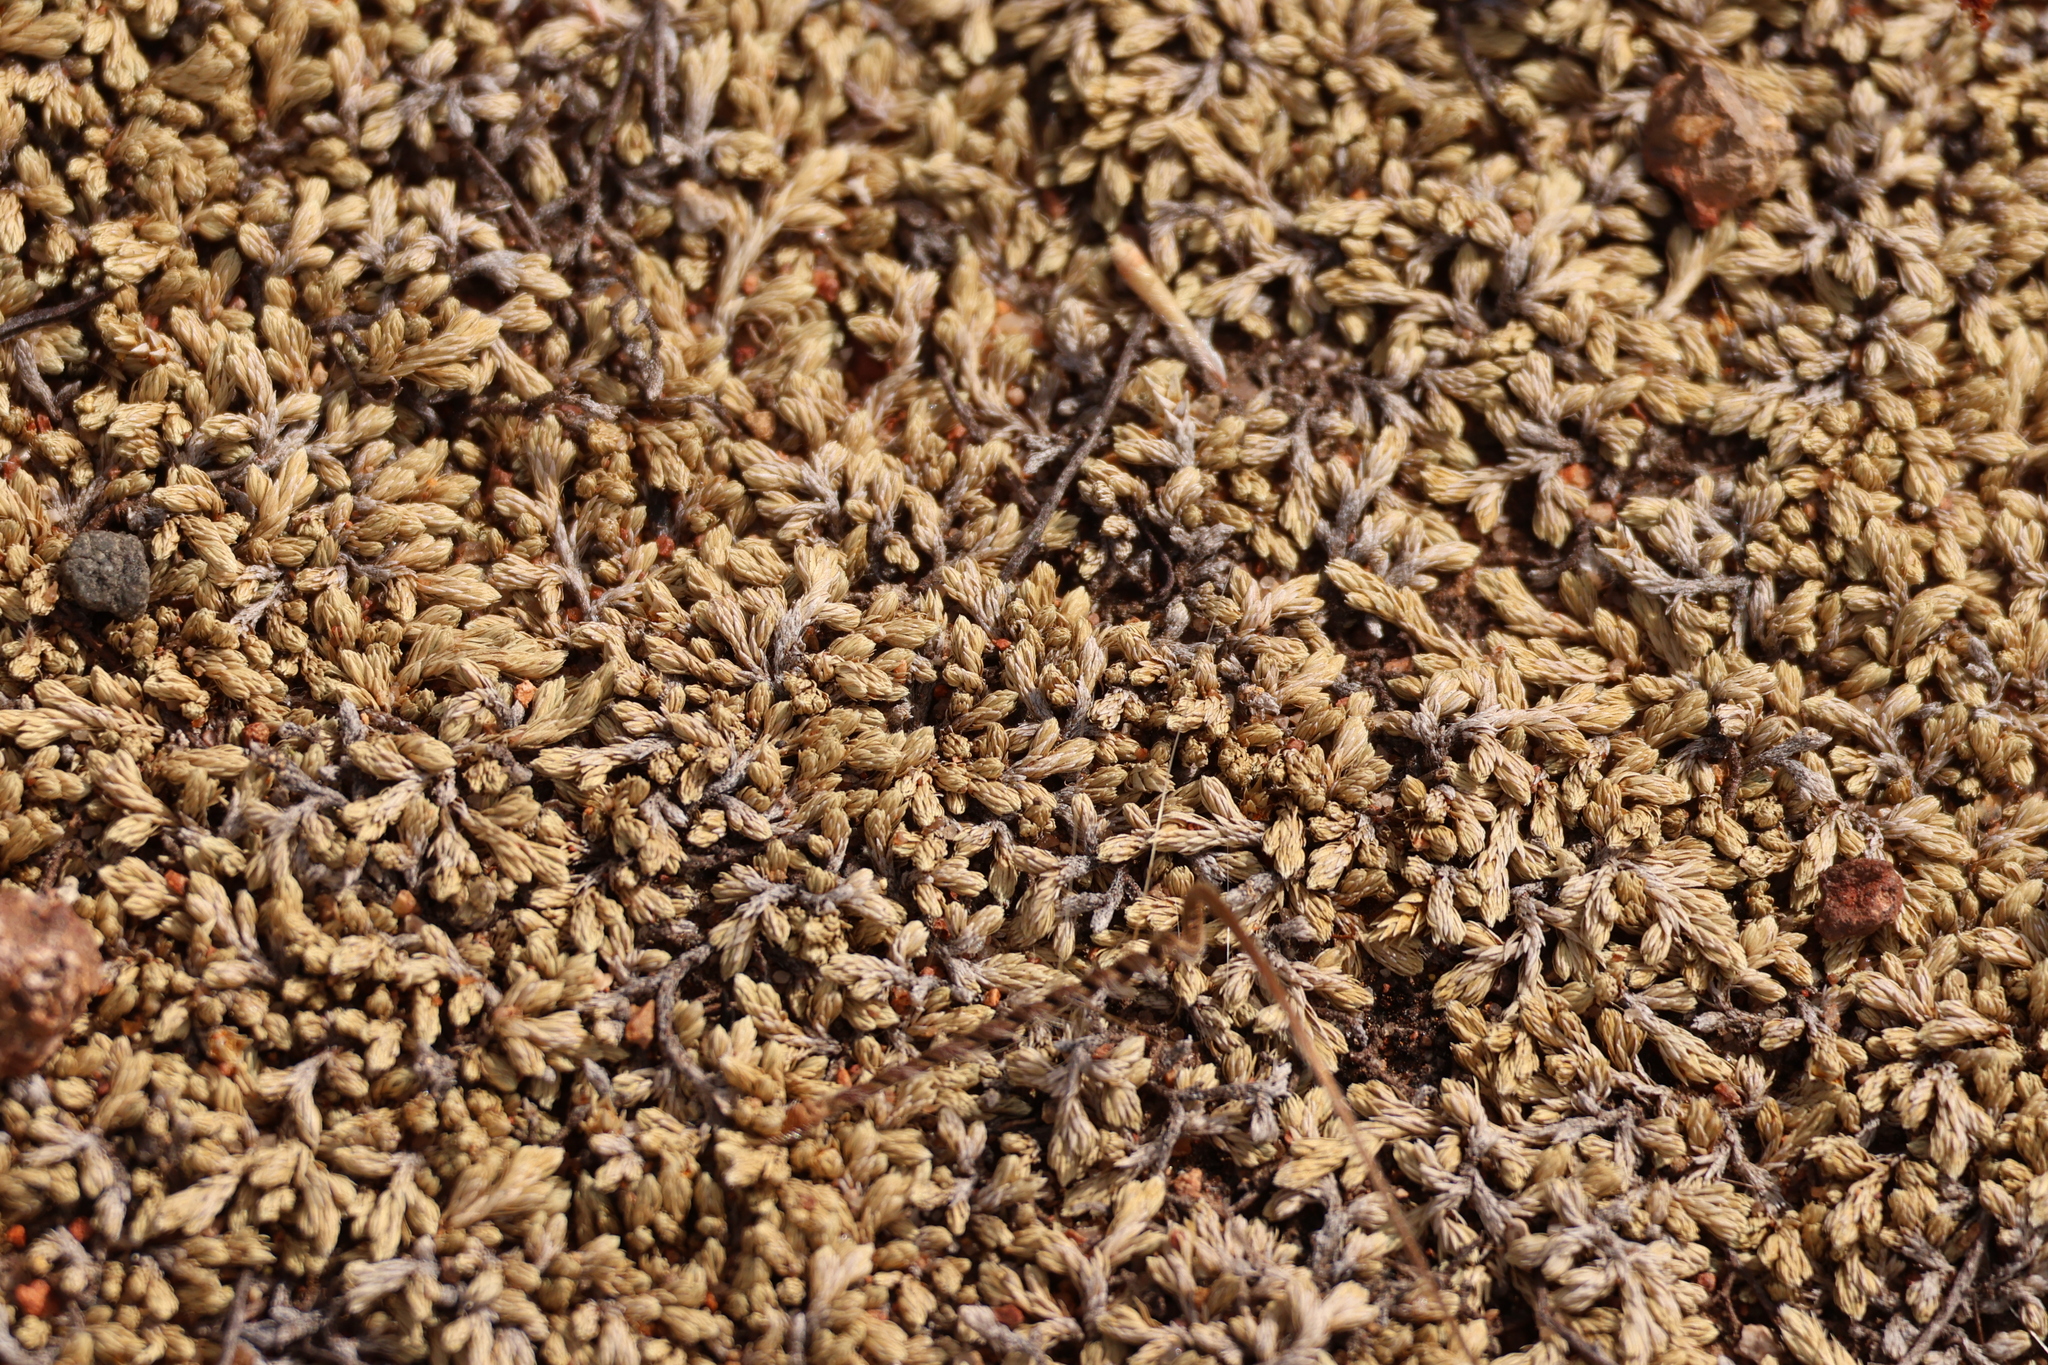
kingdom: Plantae
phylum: Tracheophyta
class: Lycopodiopsida
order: Selaginellales
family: Selaginellaceae
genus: Selaginella
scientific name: Selaginella cinerascens
